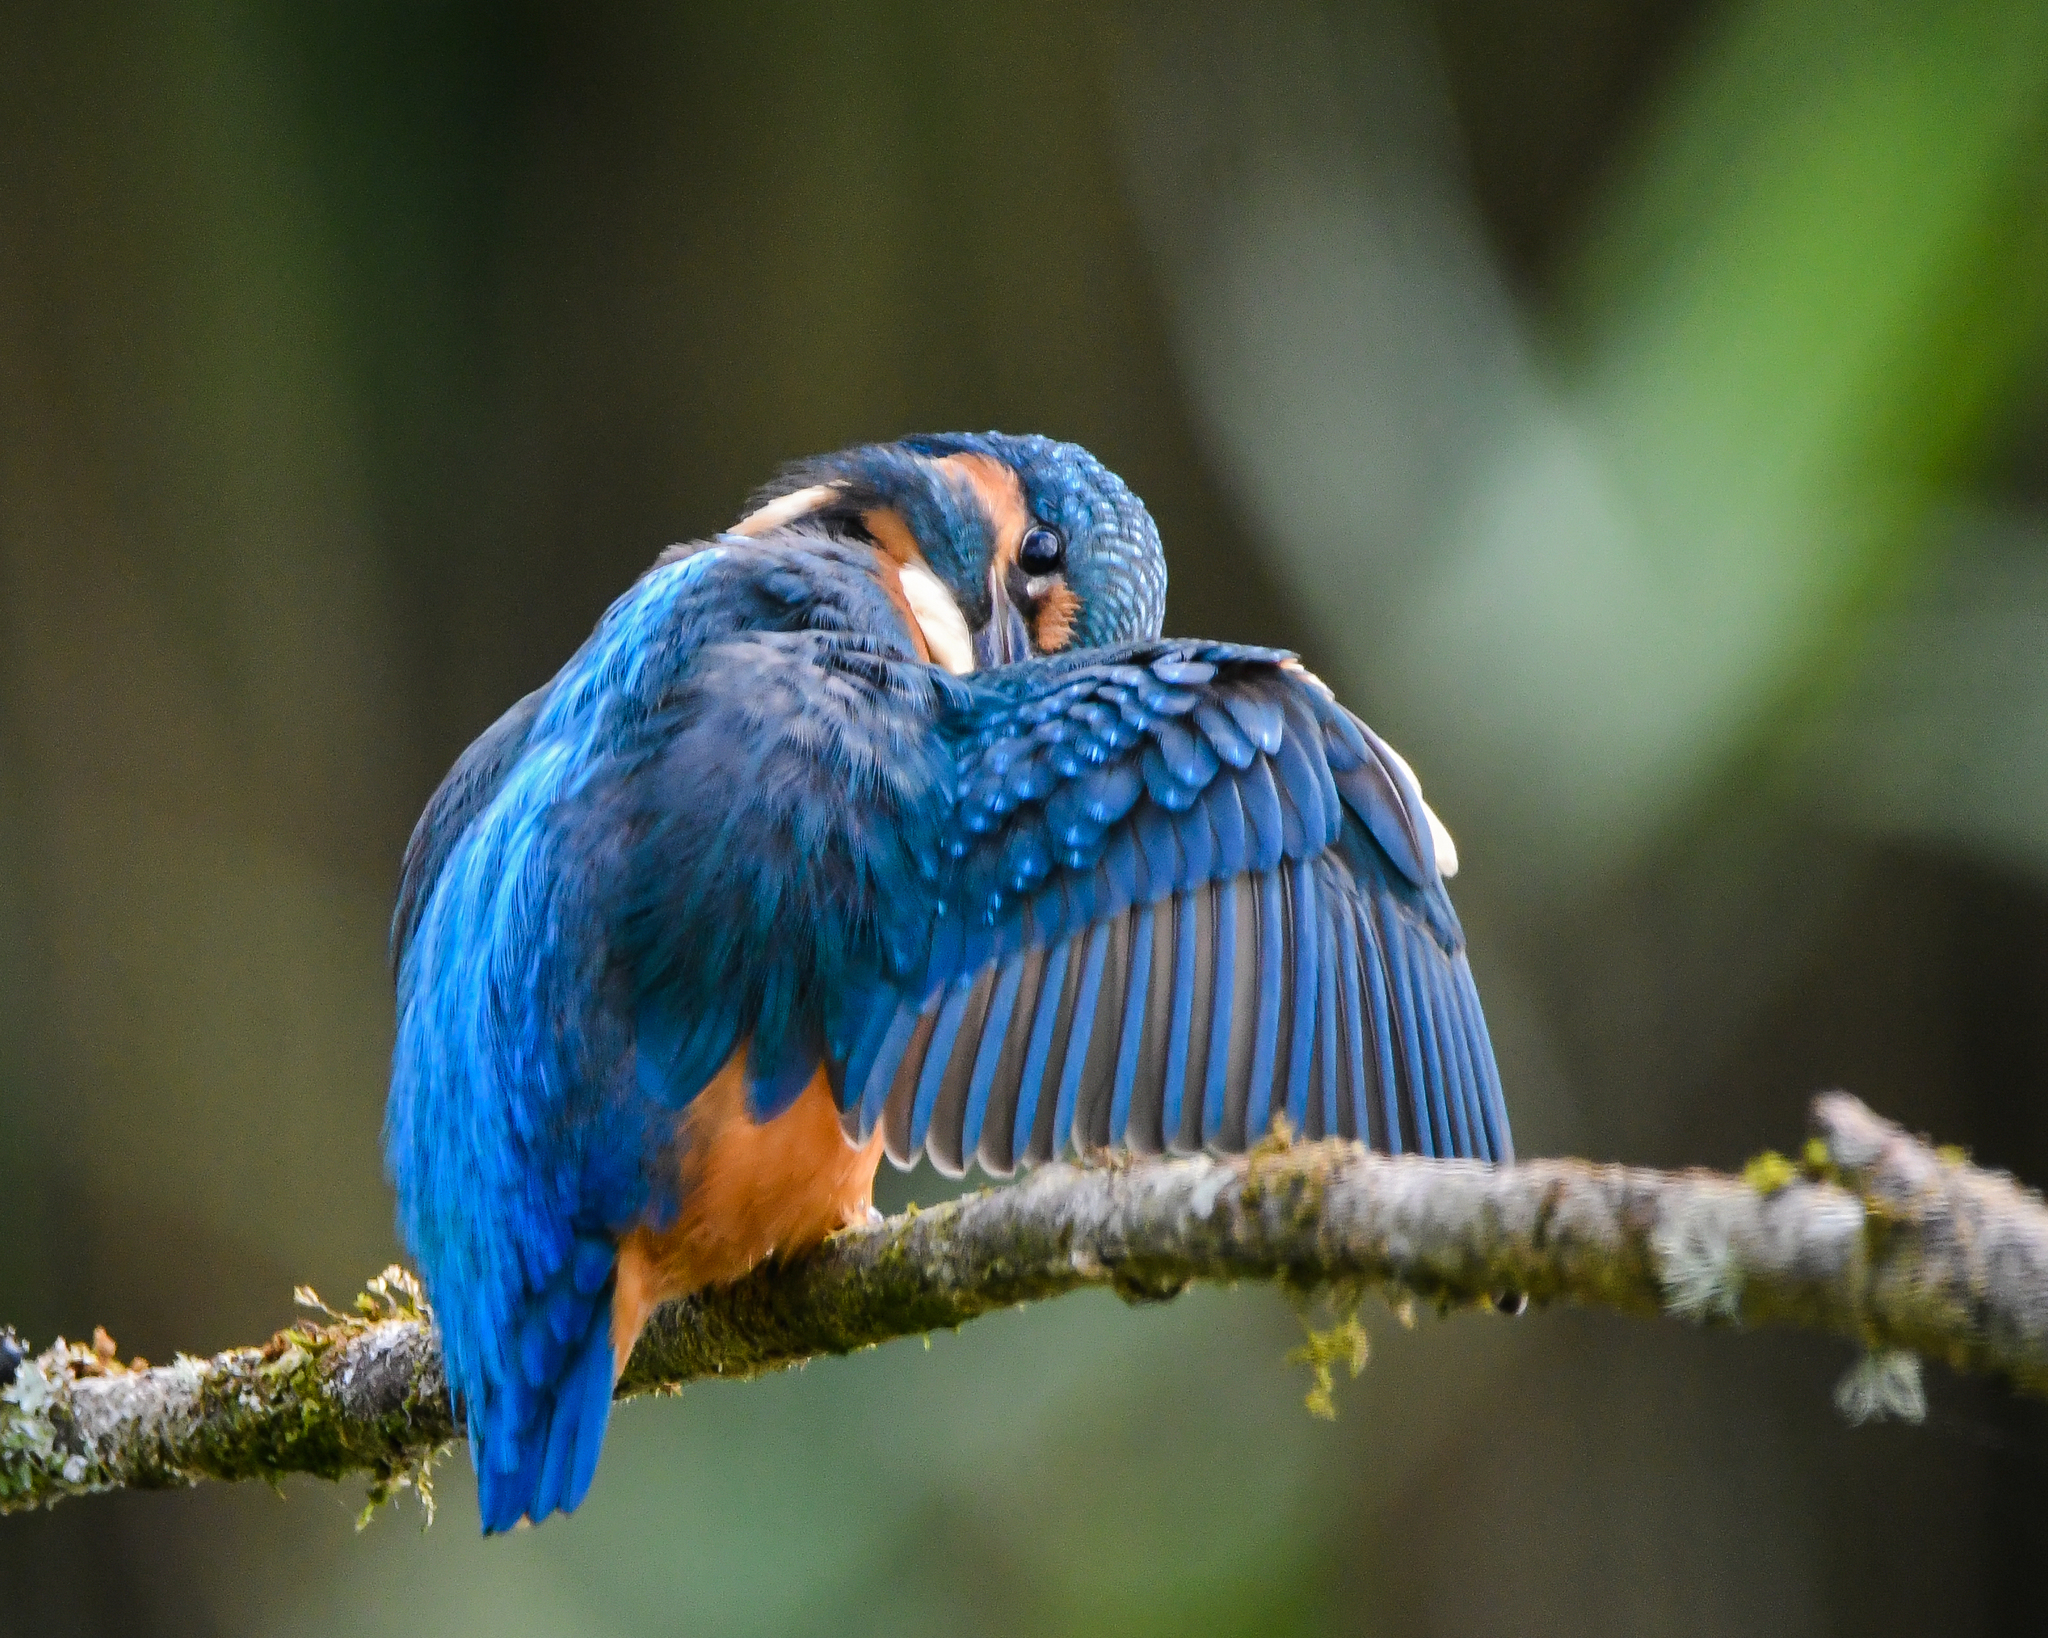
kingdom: Animalia
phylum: Chordata
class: Aves
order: Coraciiformes
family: Alcedinidae
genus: Alcedo
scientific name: Alcedo atthis
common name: Common kingfisher
